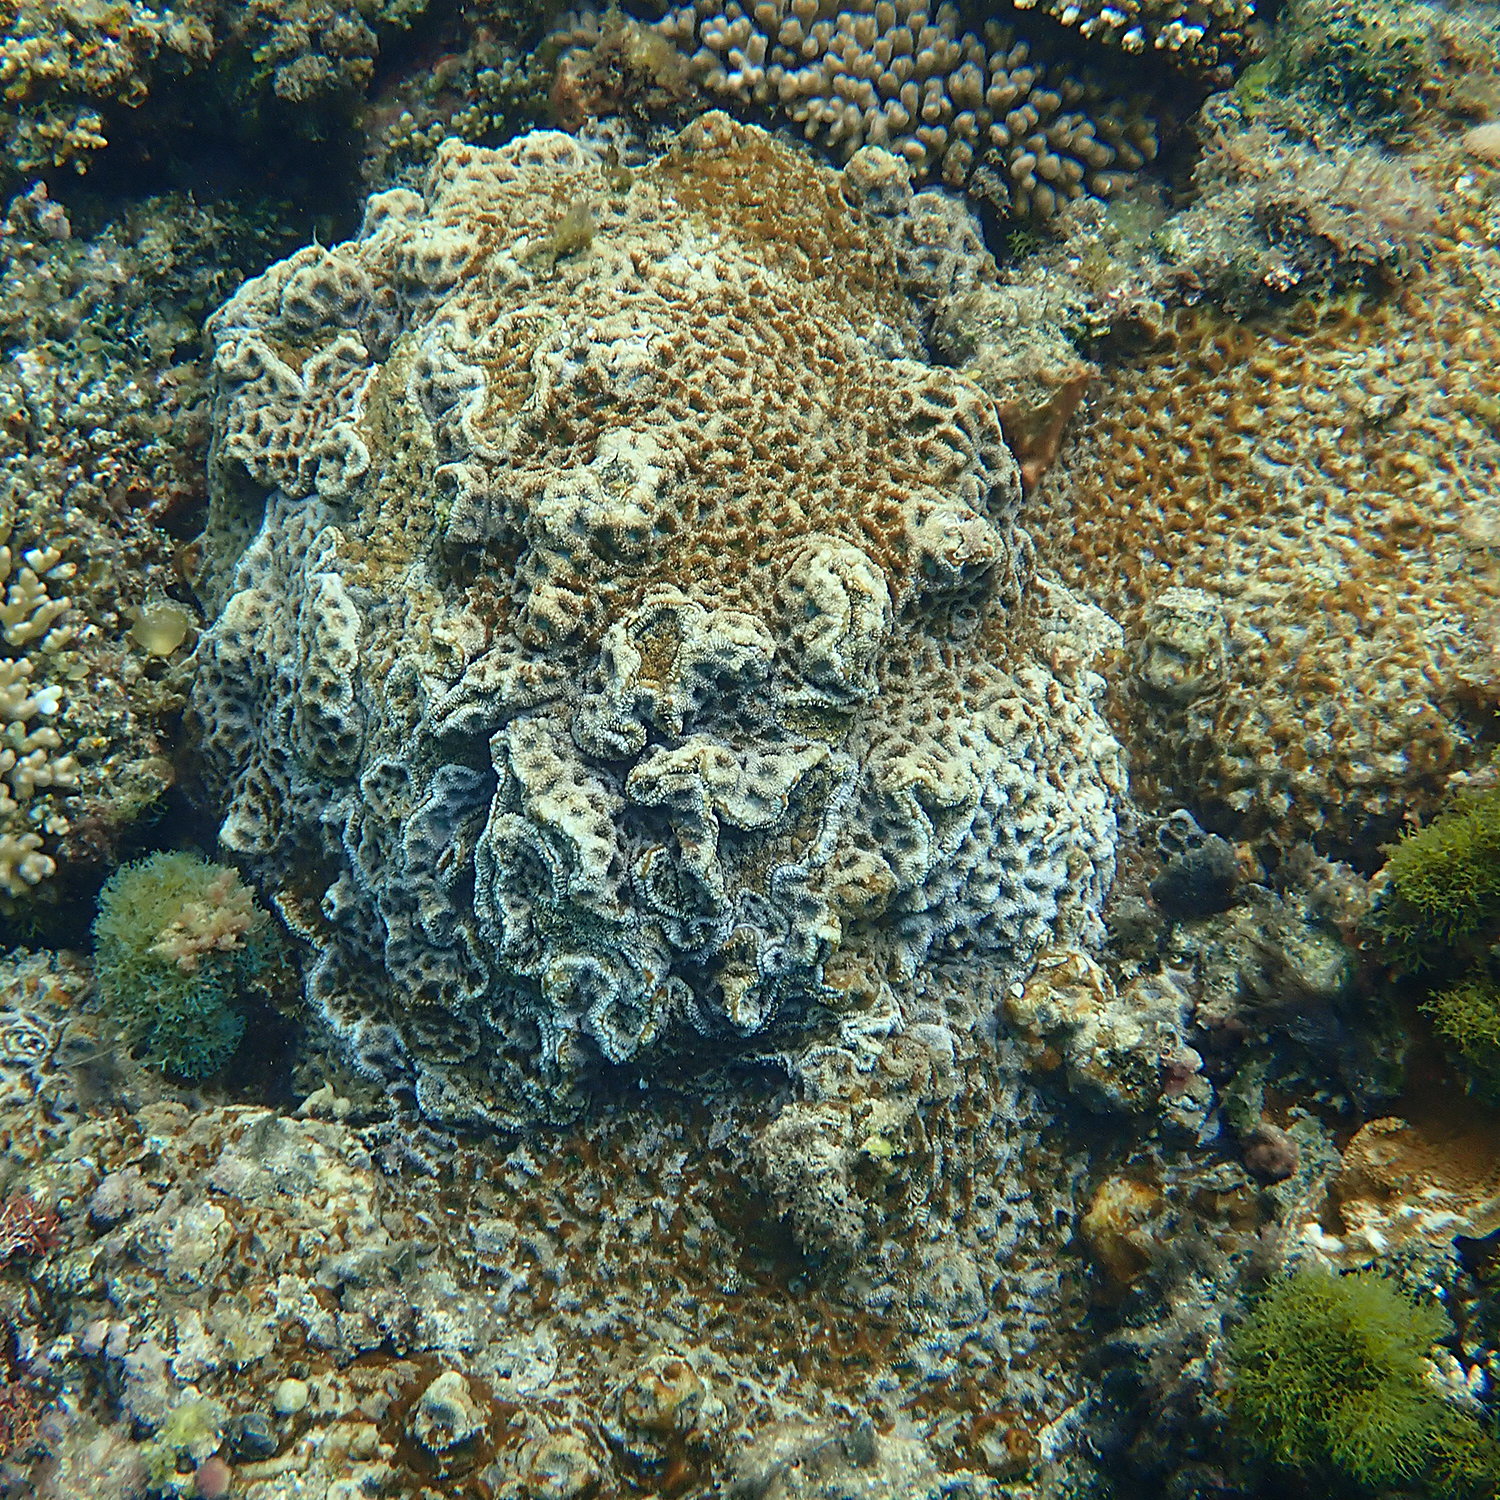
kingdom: Animalia
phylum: Cnidaria
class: Anthozoa
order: Scleractinia
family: Lobophylliidae
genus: Homophyllia
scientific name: Homophyllia bowerbanki
